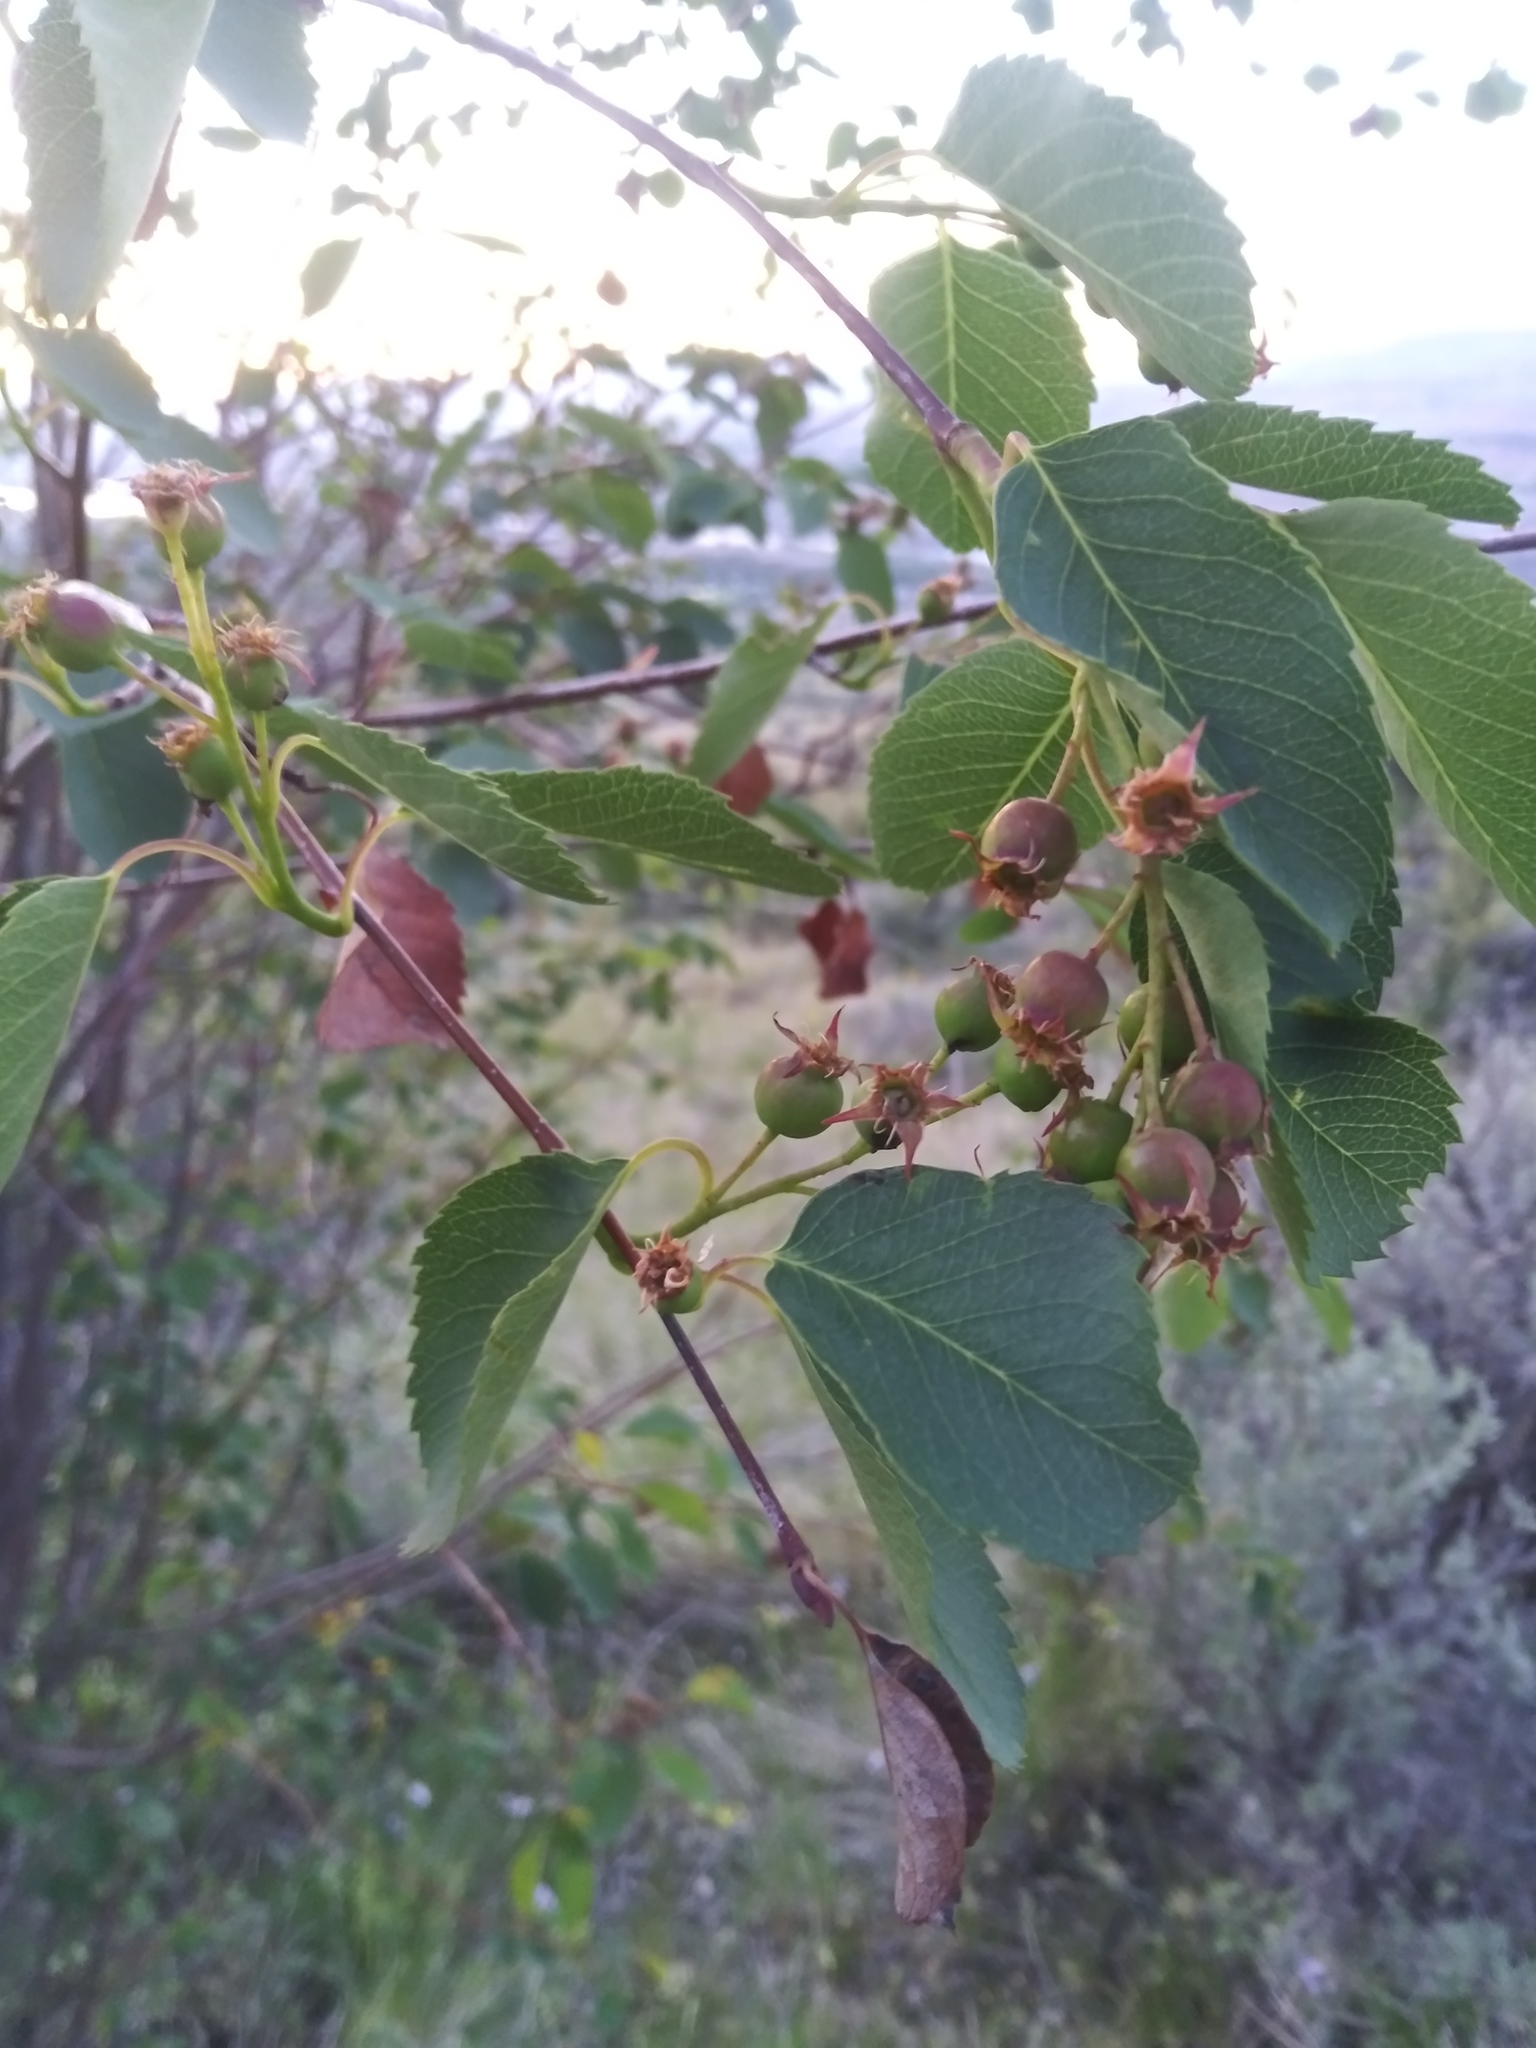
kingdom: Plantae
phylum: Tracheophyta
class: Magnoliopsida
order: Rosales
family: Rosaceae
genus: Amelanchier
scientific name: Amelanchier alnifolia
